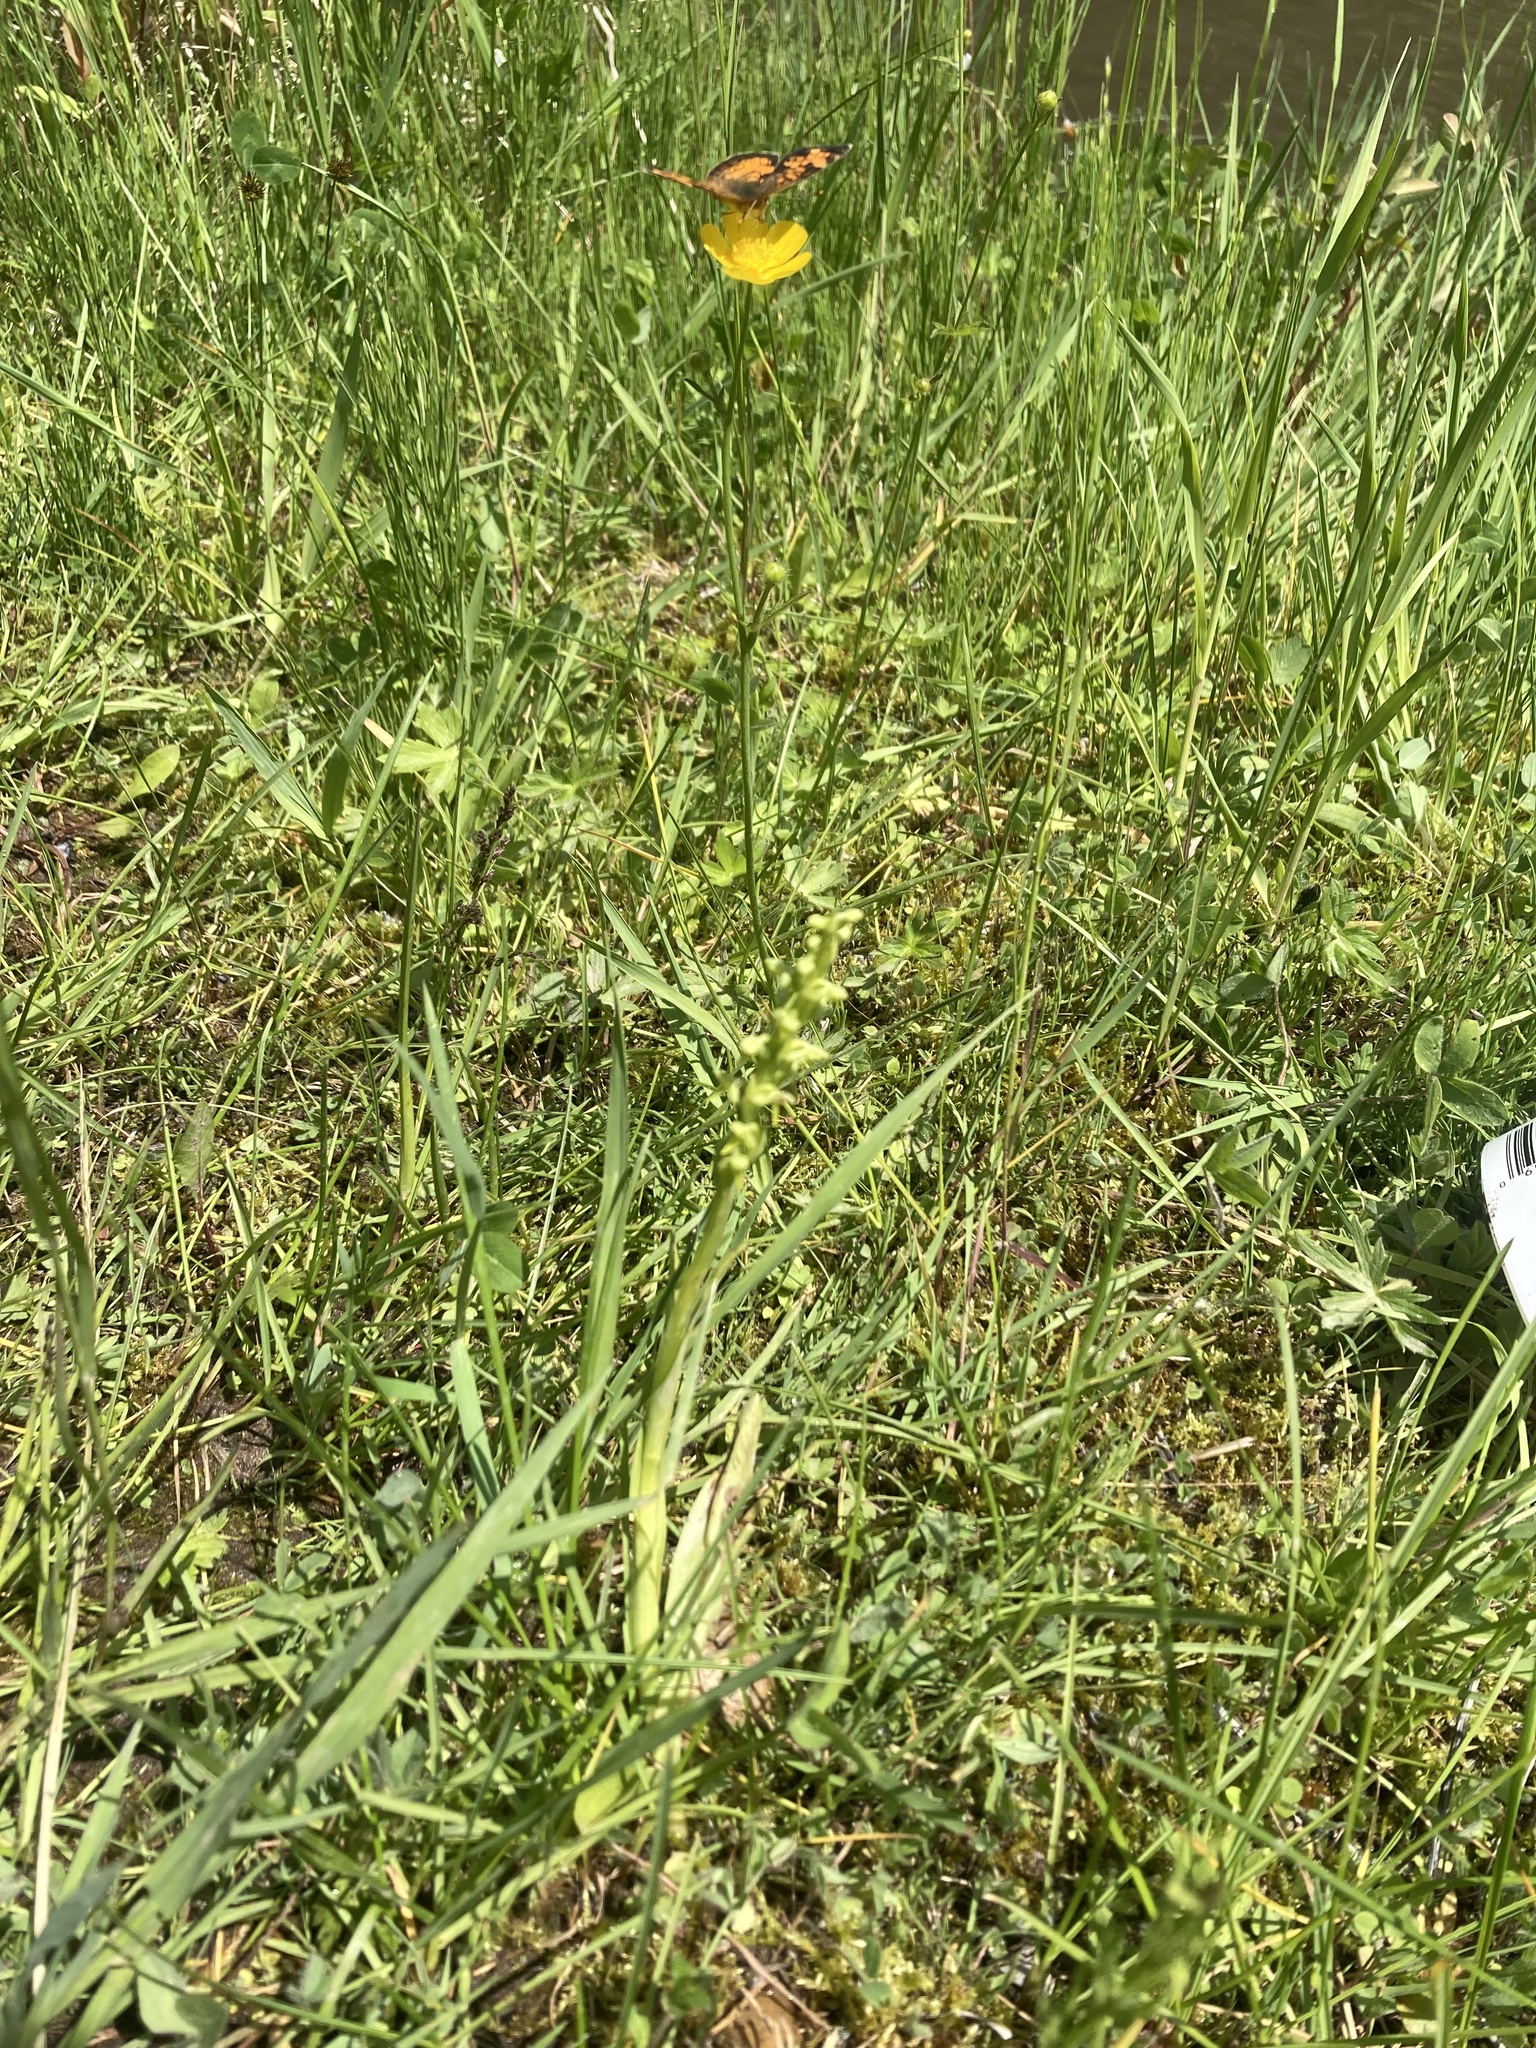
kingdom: Plantae
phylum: Tracheophyta
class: Liliopsida
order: Asparagales
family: Orchidaceae
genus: Platanthera
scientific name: Platanthera aquilonis
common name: Northern green orchid
